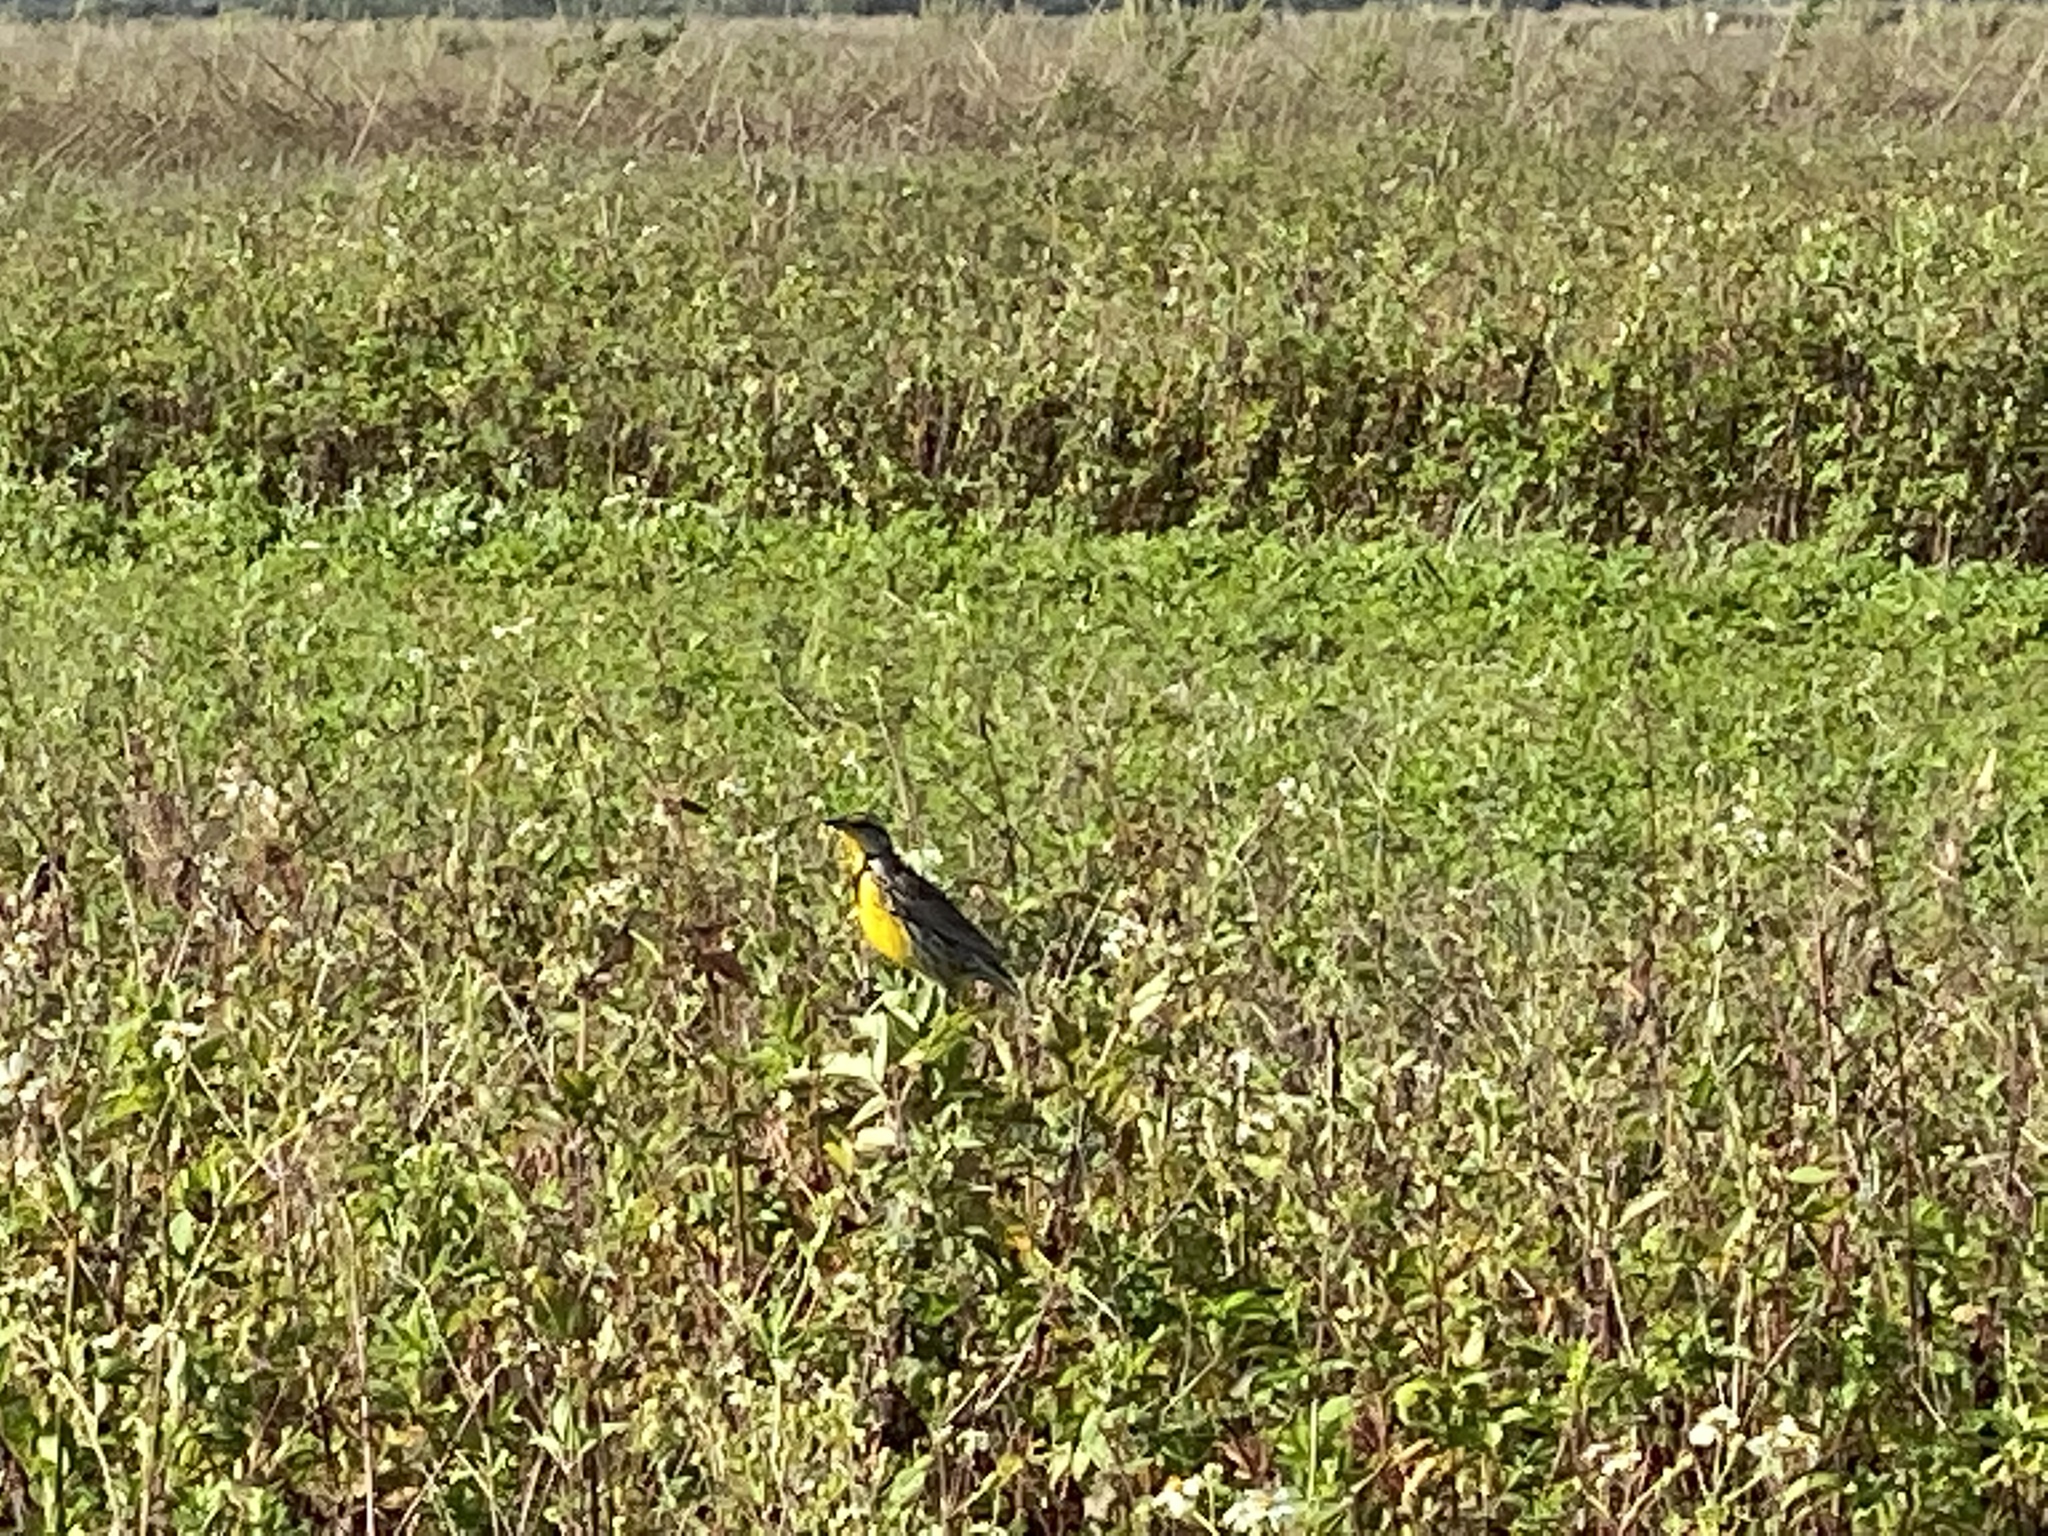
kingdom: Animalia
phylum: Chordata
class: Aves
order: Passeriformes
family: Icteridae
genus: Sturnella
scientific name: Sturnella magna
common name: Eastern meadowlark
